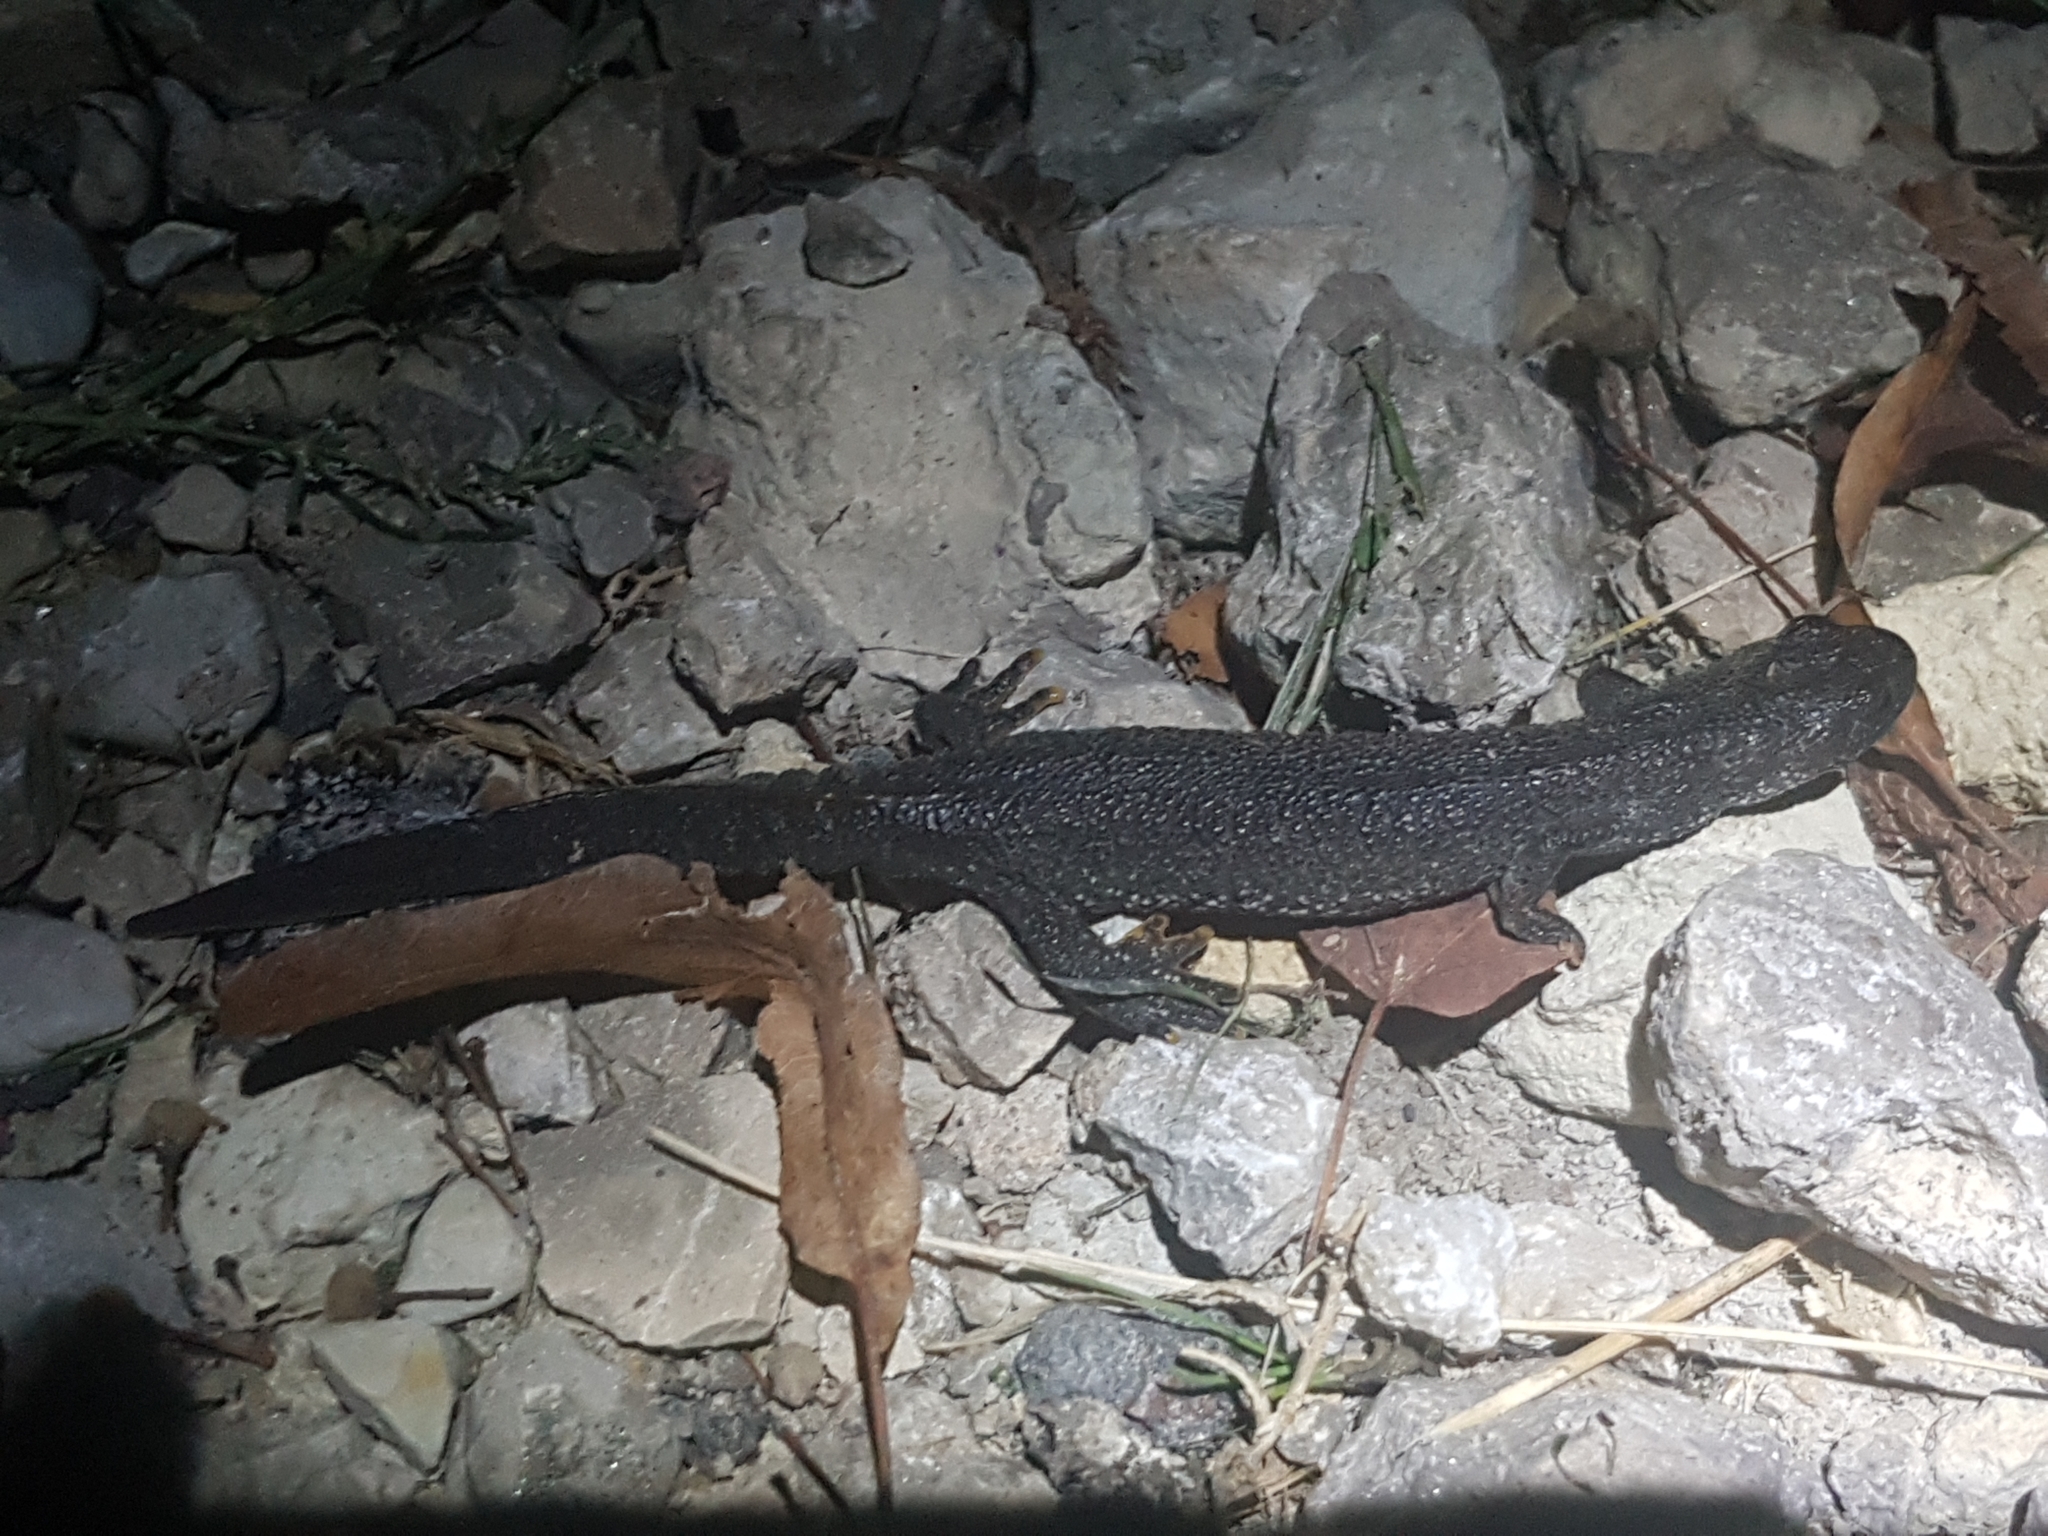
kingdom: Animalia
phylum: Chordata
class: Amphibia
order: Caudata
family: Salamandridae
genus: Triturus
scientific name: Triturus cristatus
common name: Crested newt
